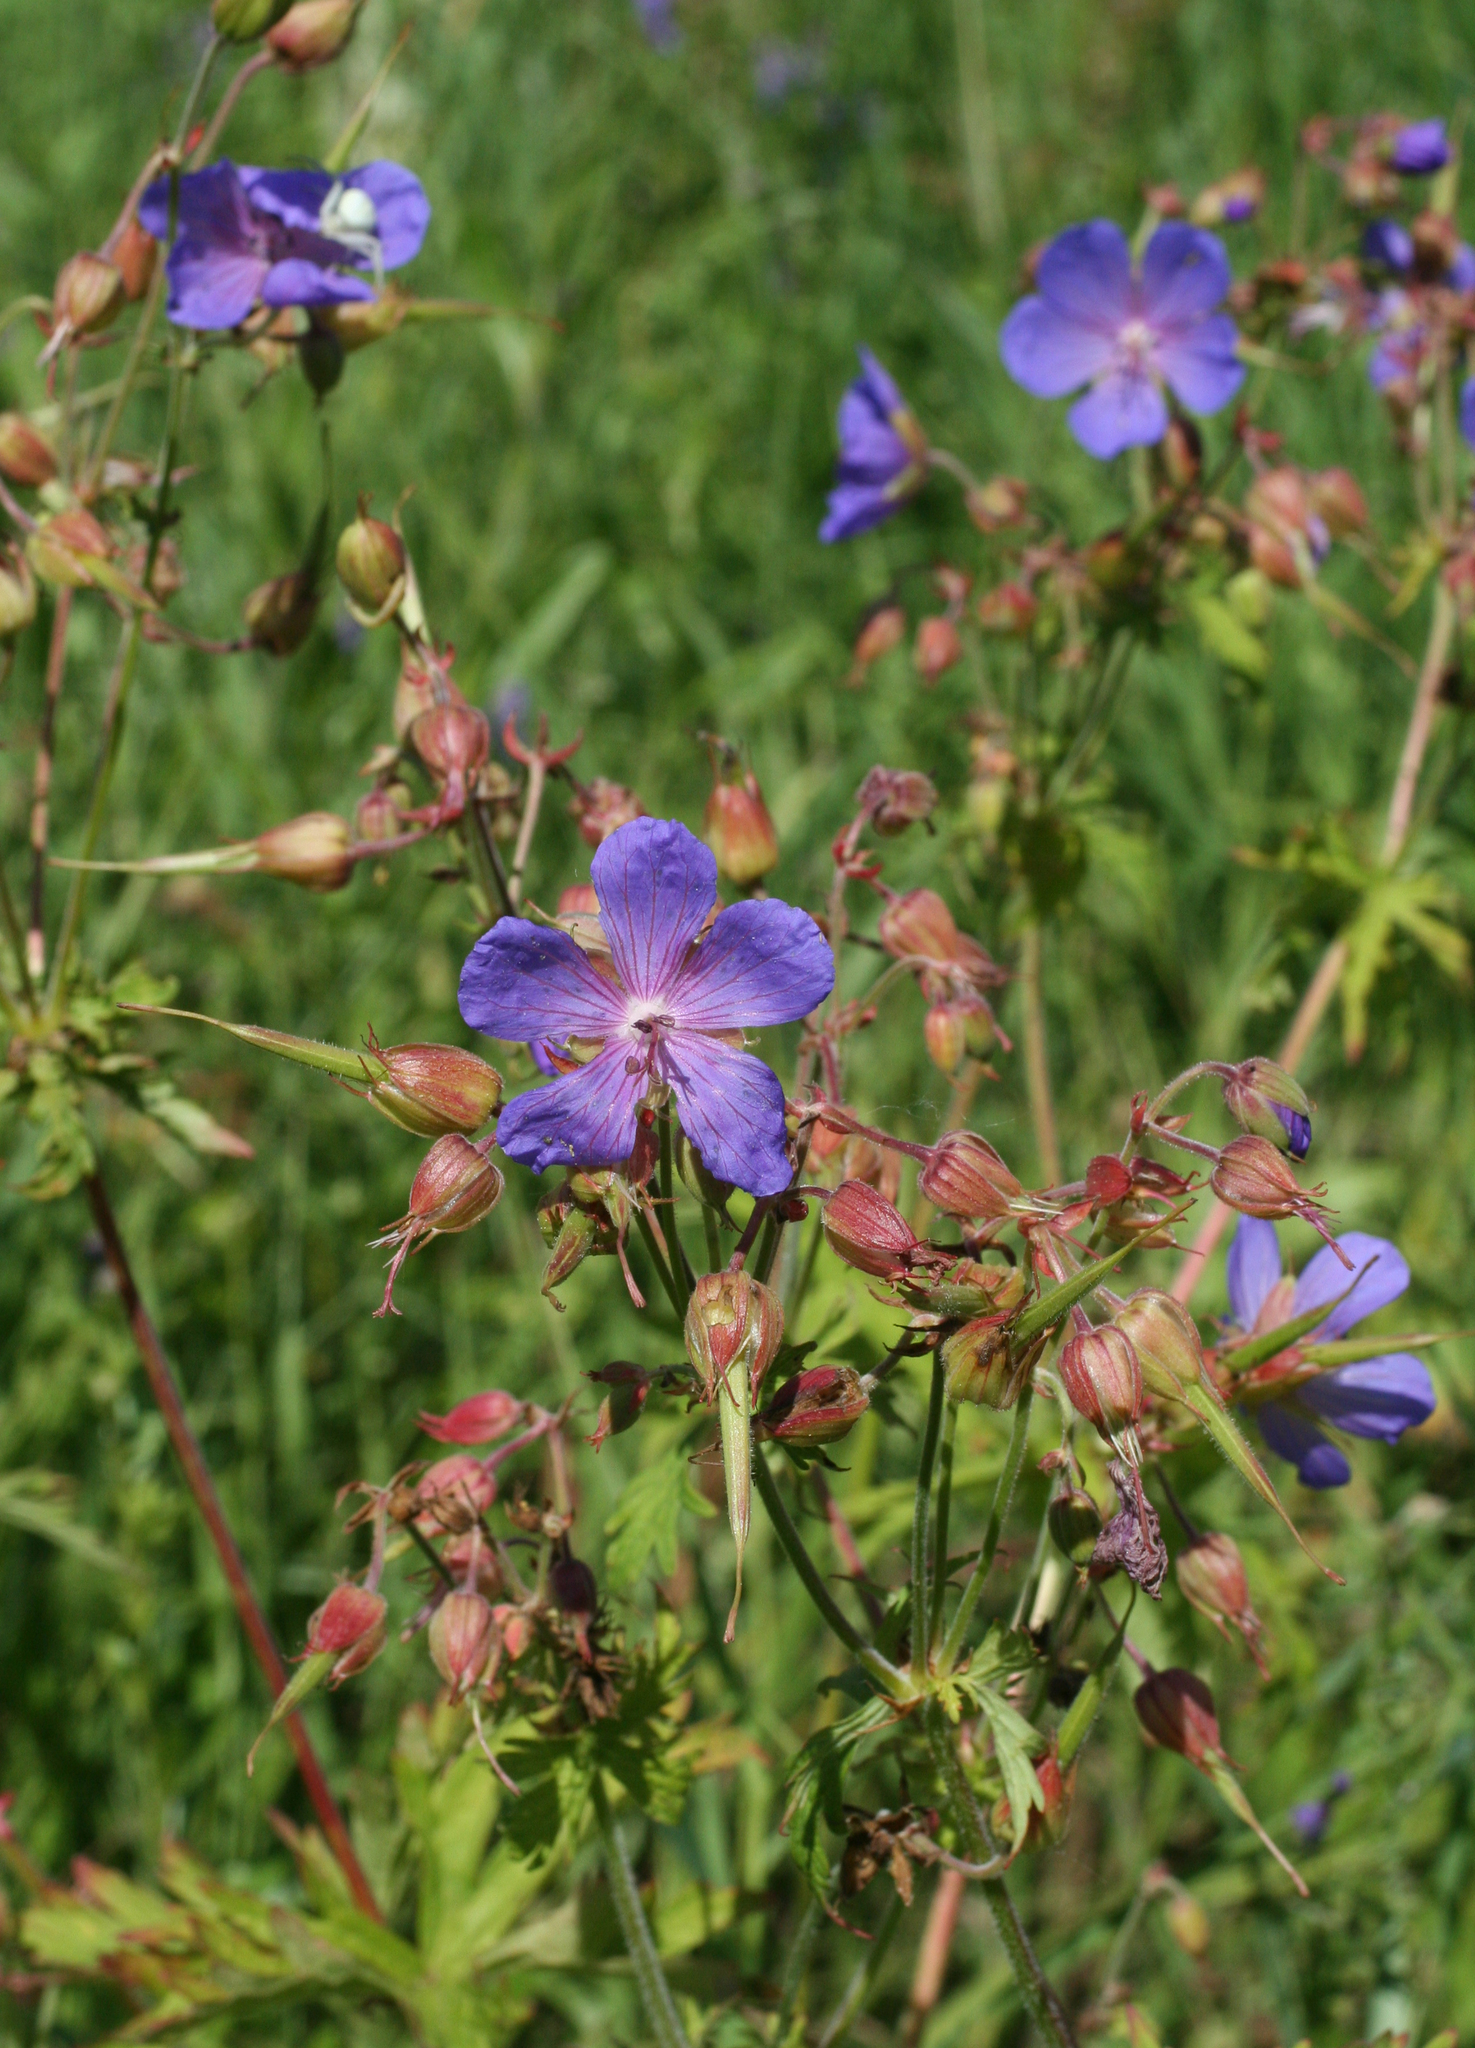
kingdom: Plantae
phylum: Tracheophyta
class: Magnoliopsida
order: Geraniales
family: Geraniaceae
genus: Geranium
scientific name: Geranium pratense
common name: Meadow crane's-bill
